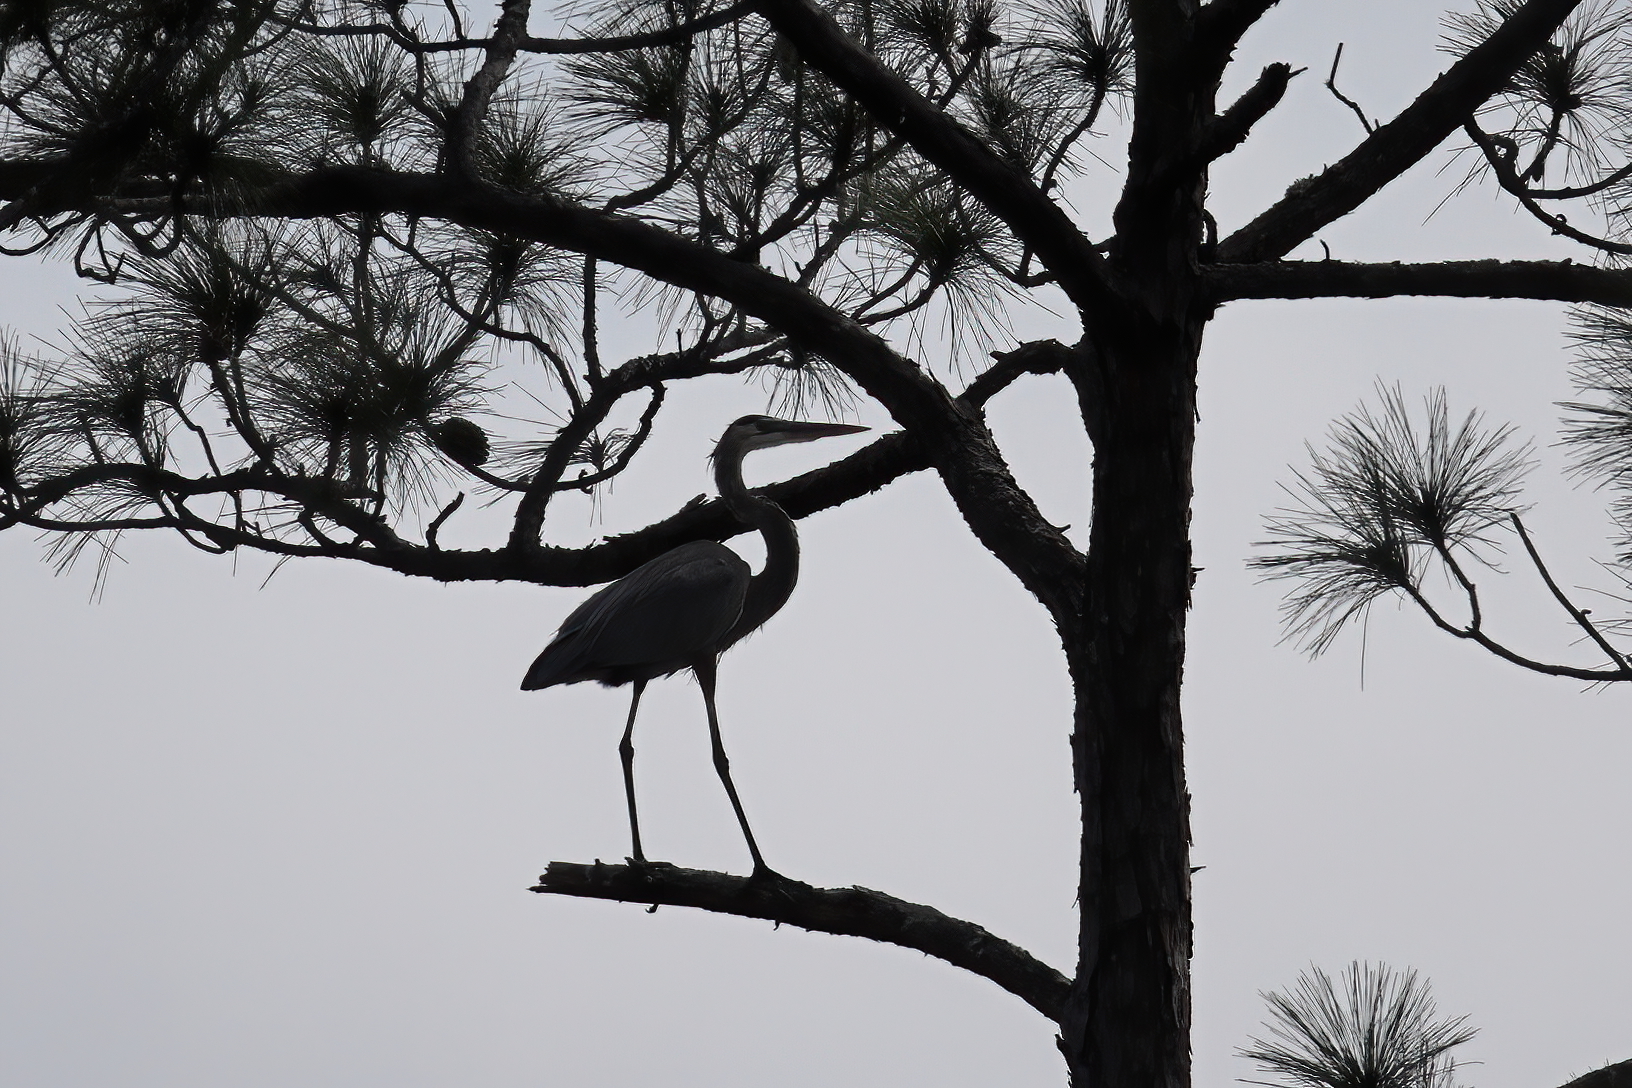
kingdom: Animalia
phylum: Chordata
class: Aves
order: Pelecaniformes
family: Ardeidae
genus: Ardea
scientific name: Ardea herodias
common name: Great blue heron
